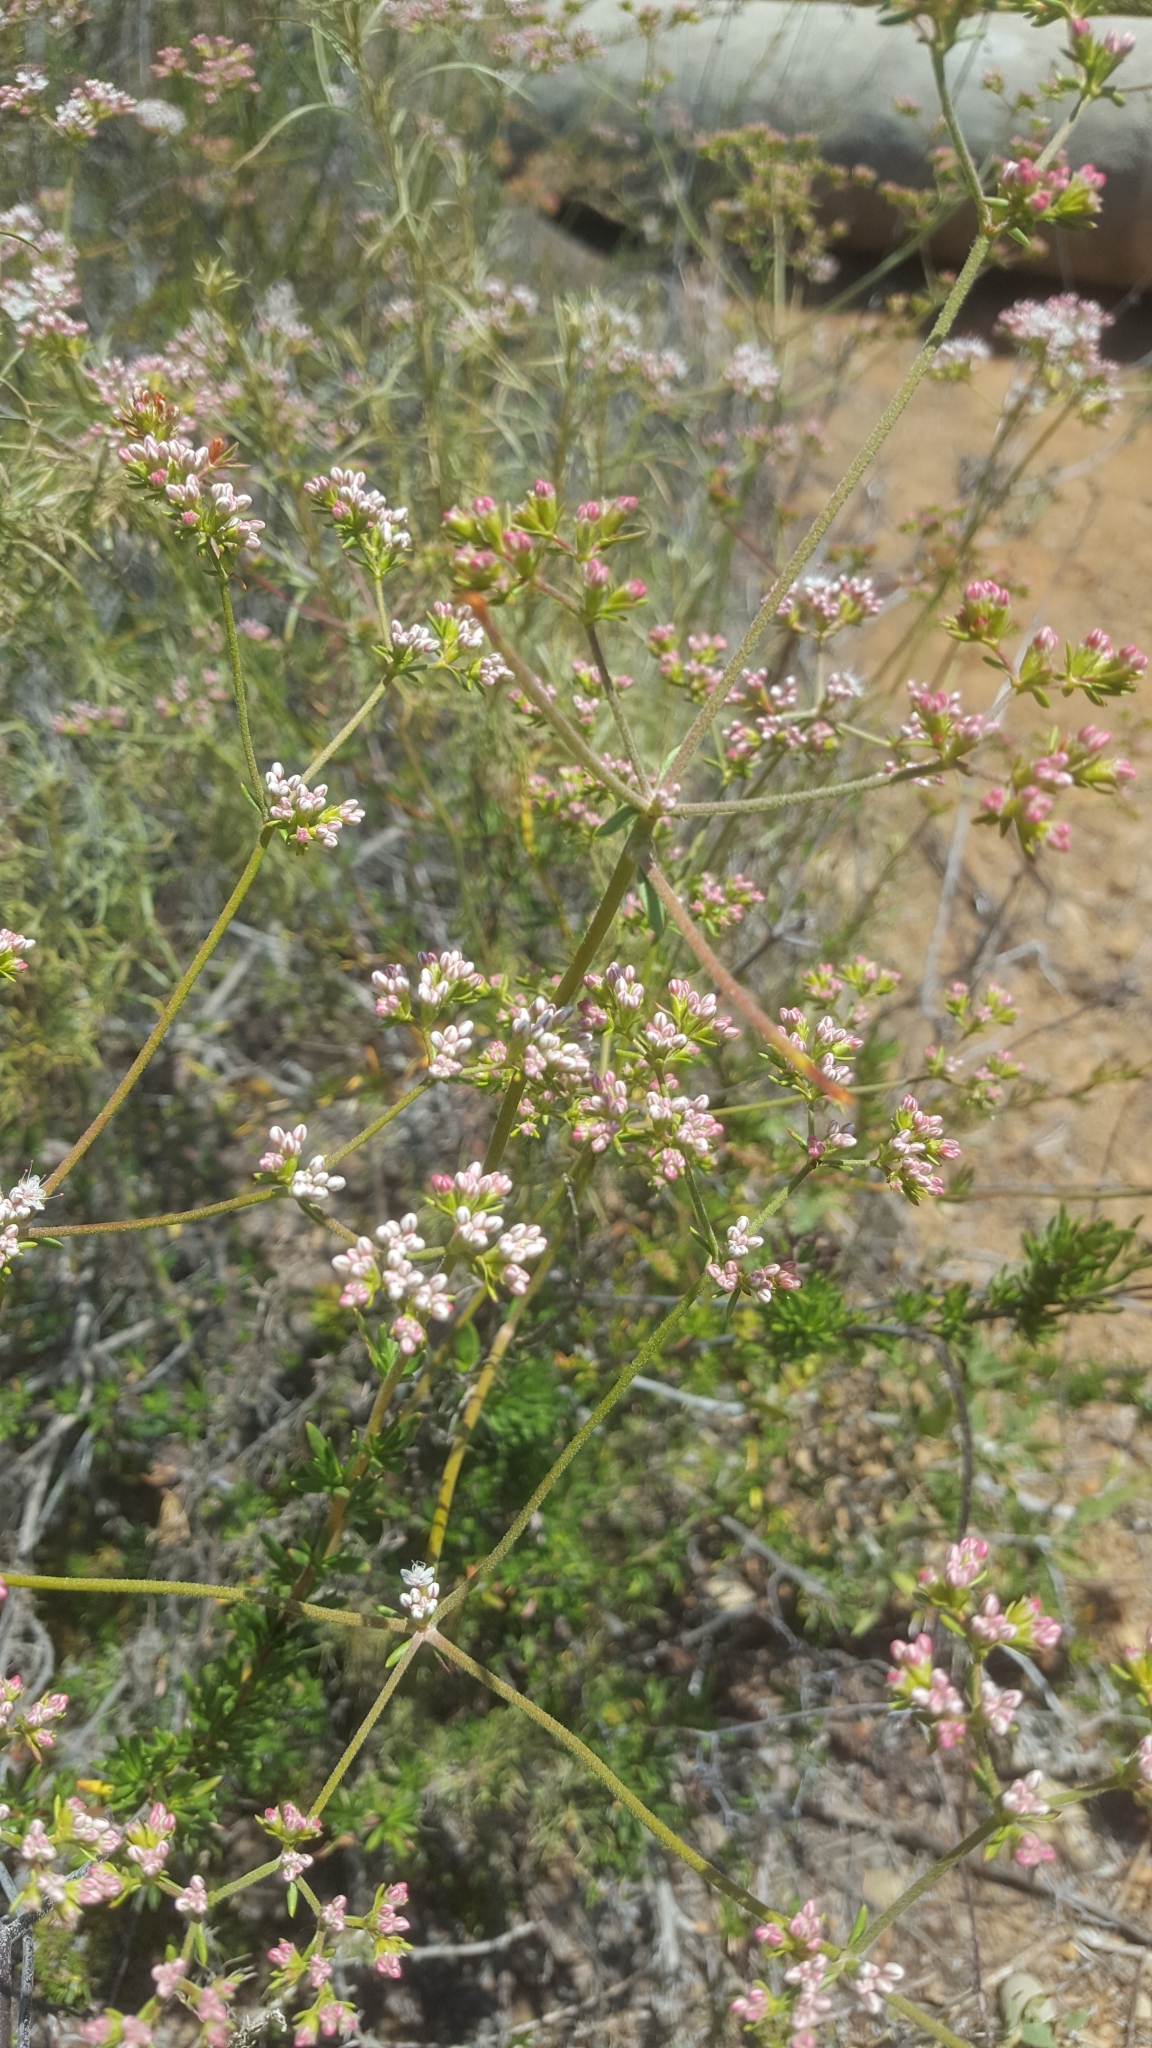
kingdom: Plantae
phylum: Tracheophyta
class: Magnoliopsida
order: Caryophyllales
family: Polygonaceae
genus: Eriogonum
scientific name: Eriogonum fasciculatum
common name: California wild buckwheat
